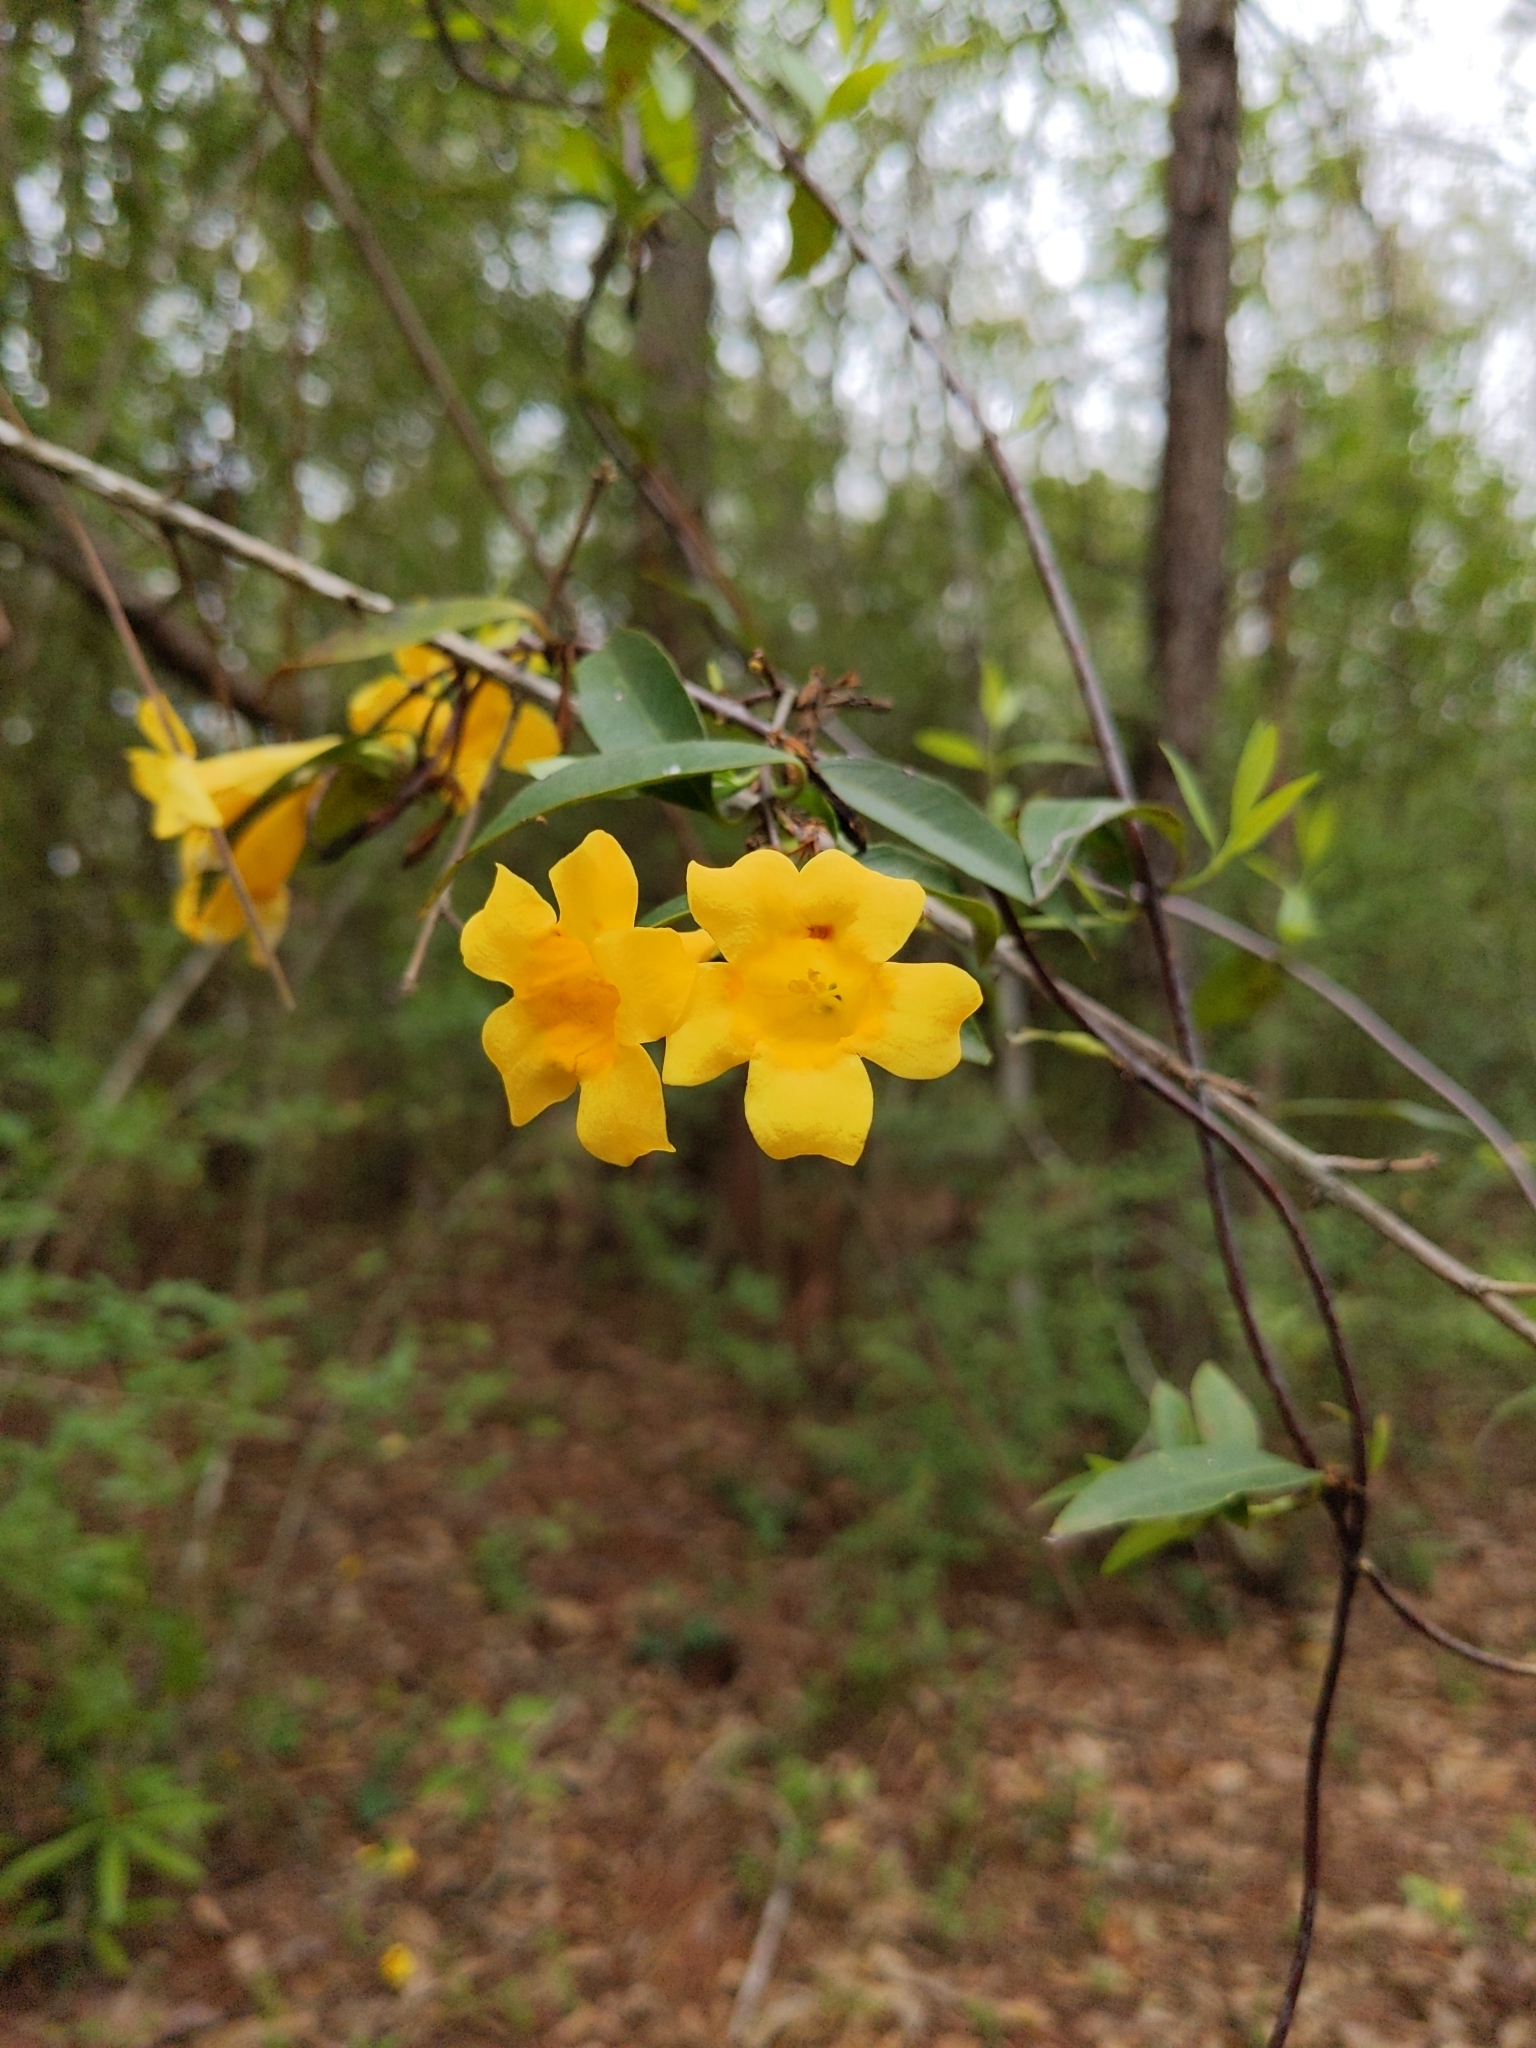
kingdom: Plantae
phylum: Tracheophyta
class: Magnoliopsida
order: Gentianales
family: Gelsemiaceae
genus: Gelsemium
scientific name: Gelsemium sempervirens
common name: Carolina-jasmine
